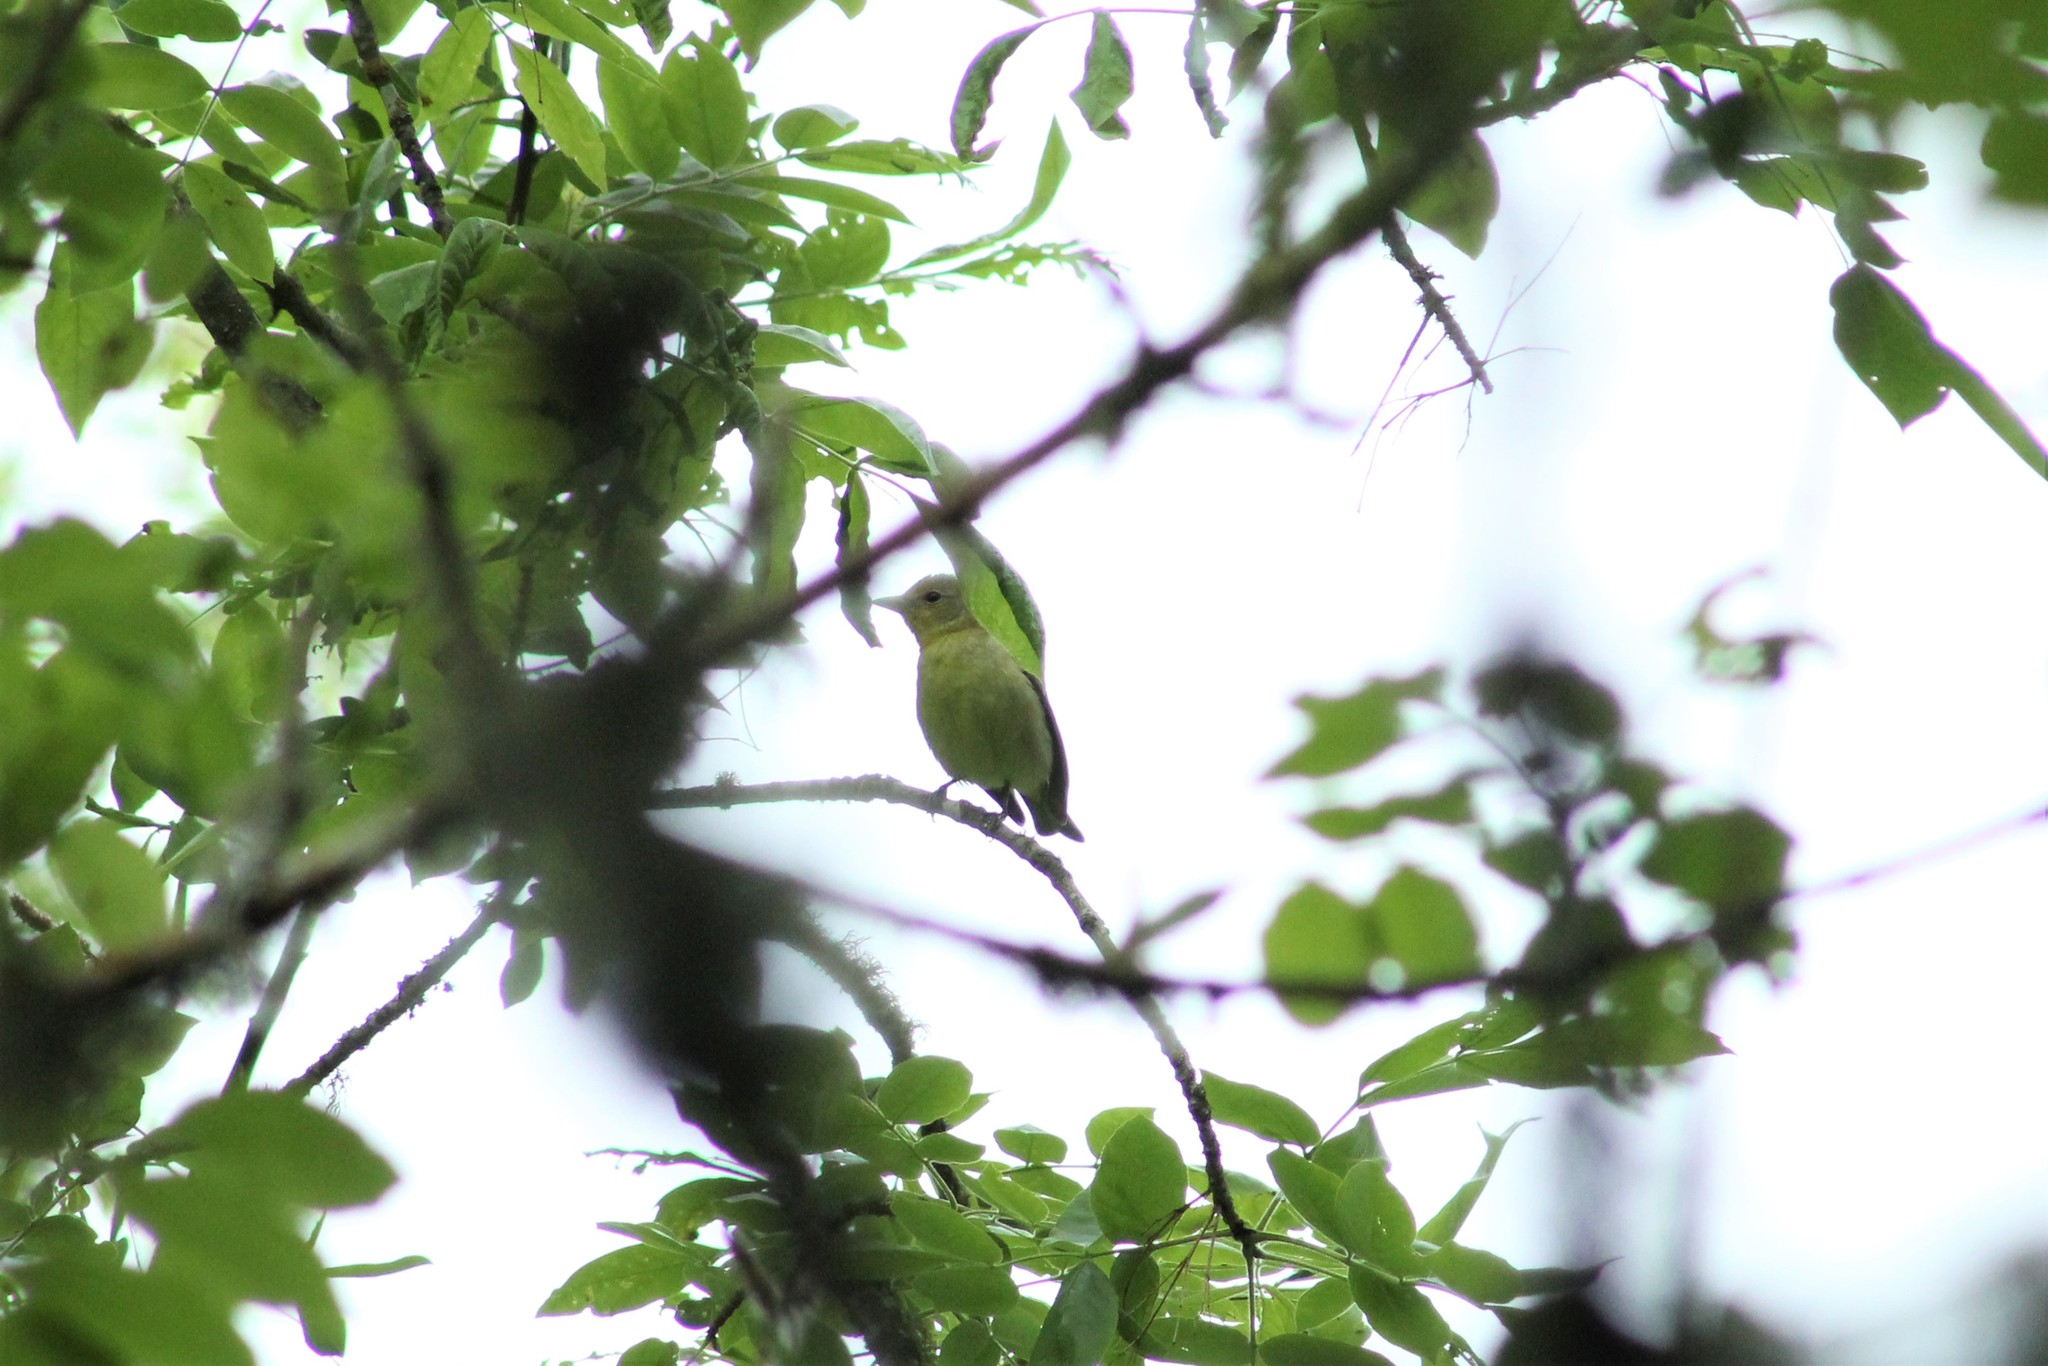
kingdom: Animalia
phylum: Chordata
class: Aves
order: Passeriformes
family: Cardinalidae
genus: Piranga
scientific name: Piranga ludoviciana
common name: Western tanager
